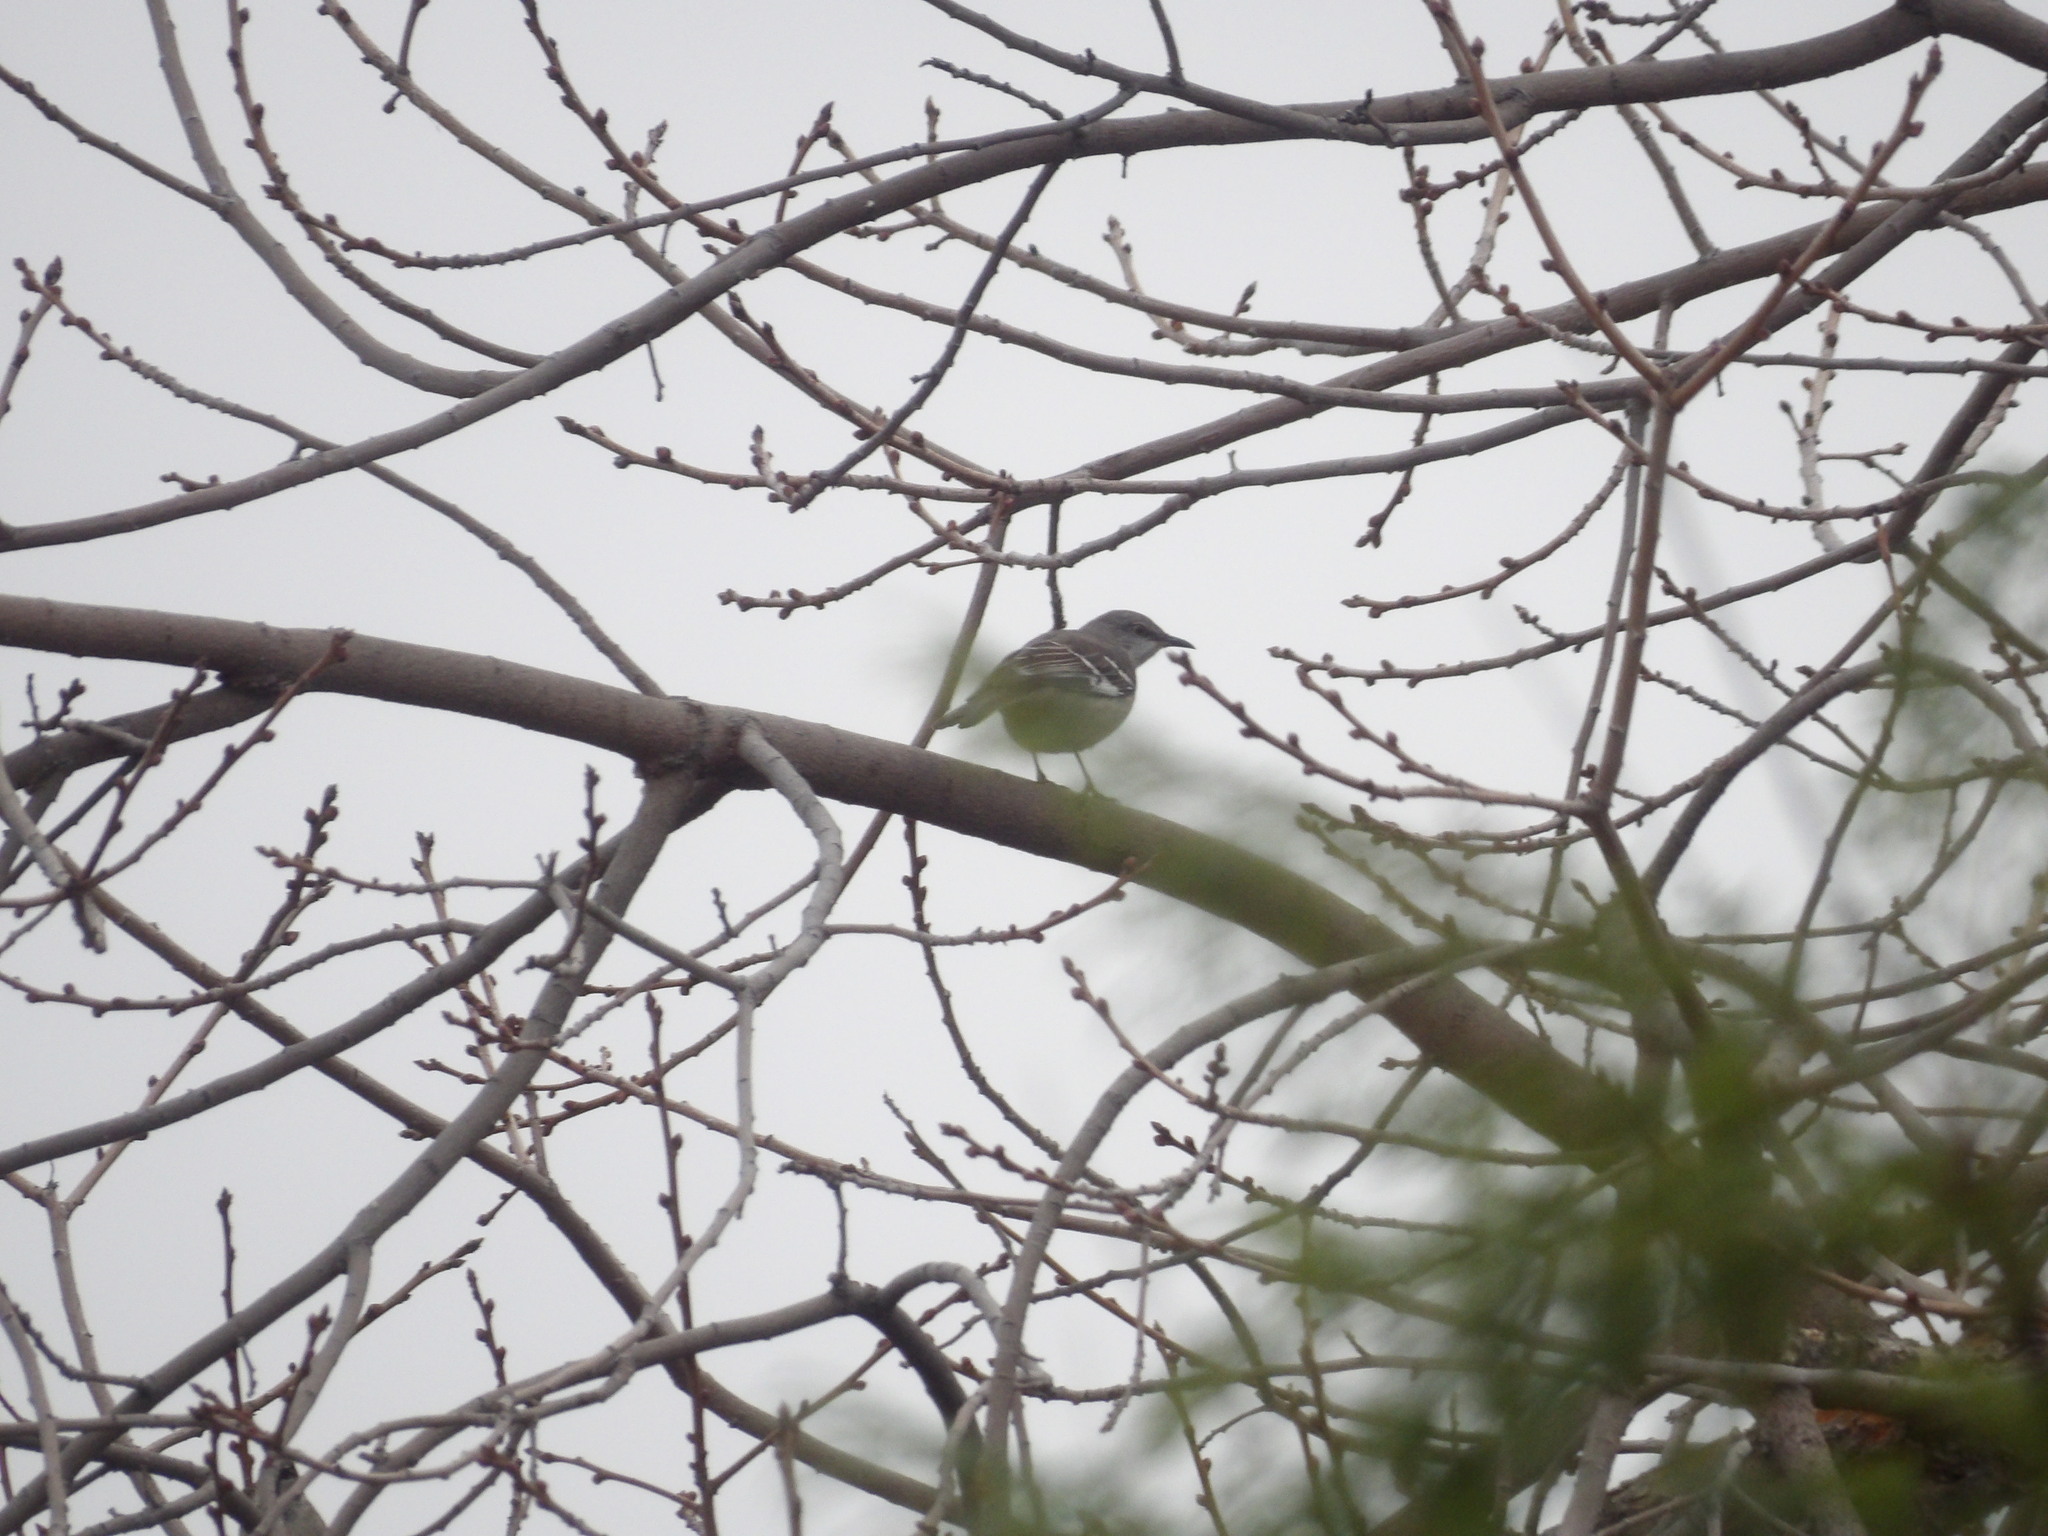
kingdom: Animalia
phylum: Chordata
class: Aves
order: Passeriformes
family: Mimidae
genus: Mimus
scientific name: Mimus polyglottos
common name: Northern mockingbird
